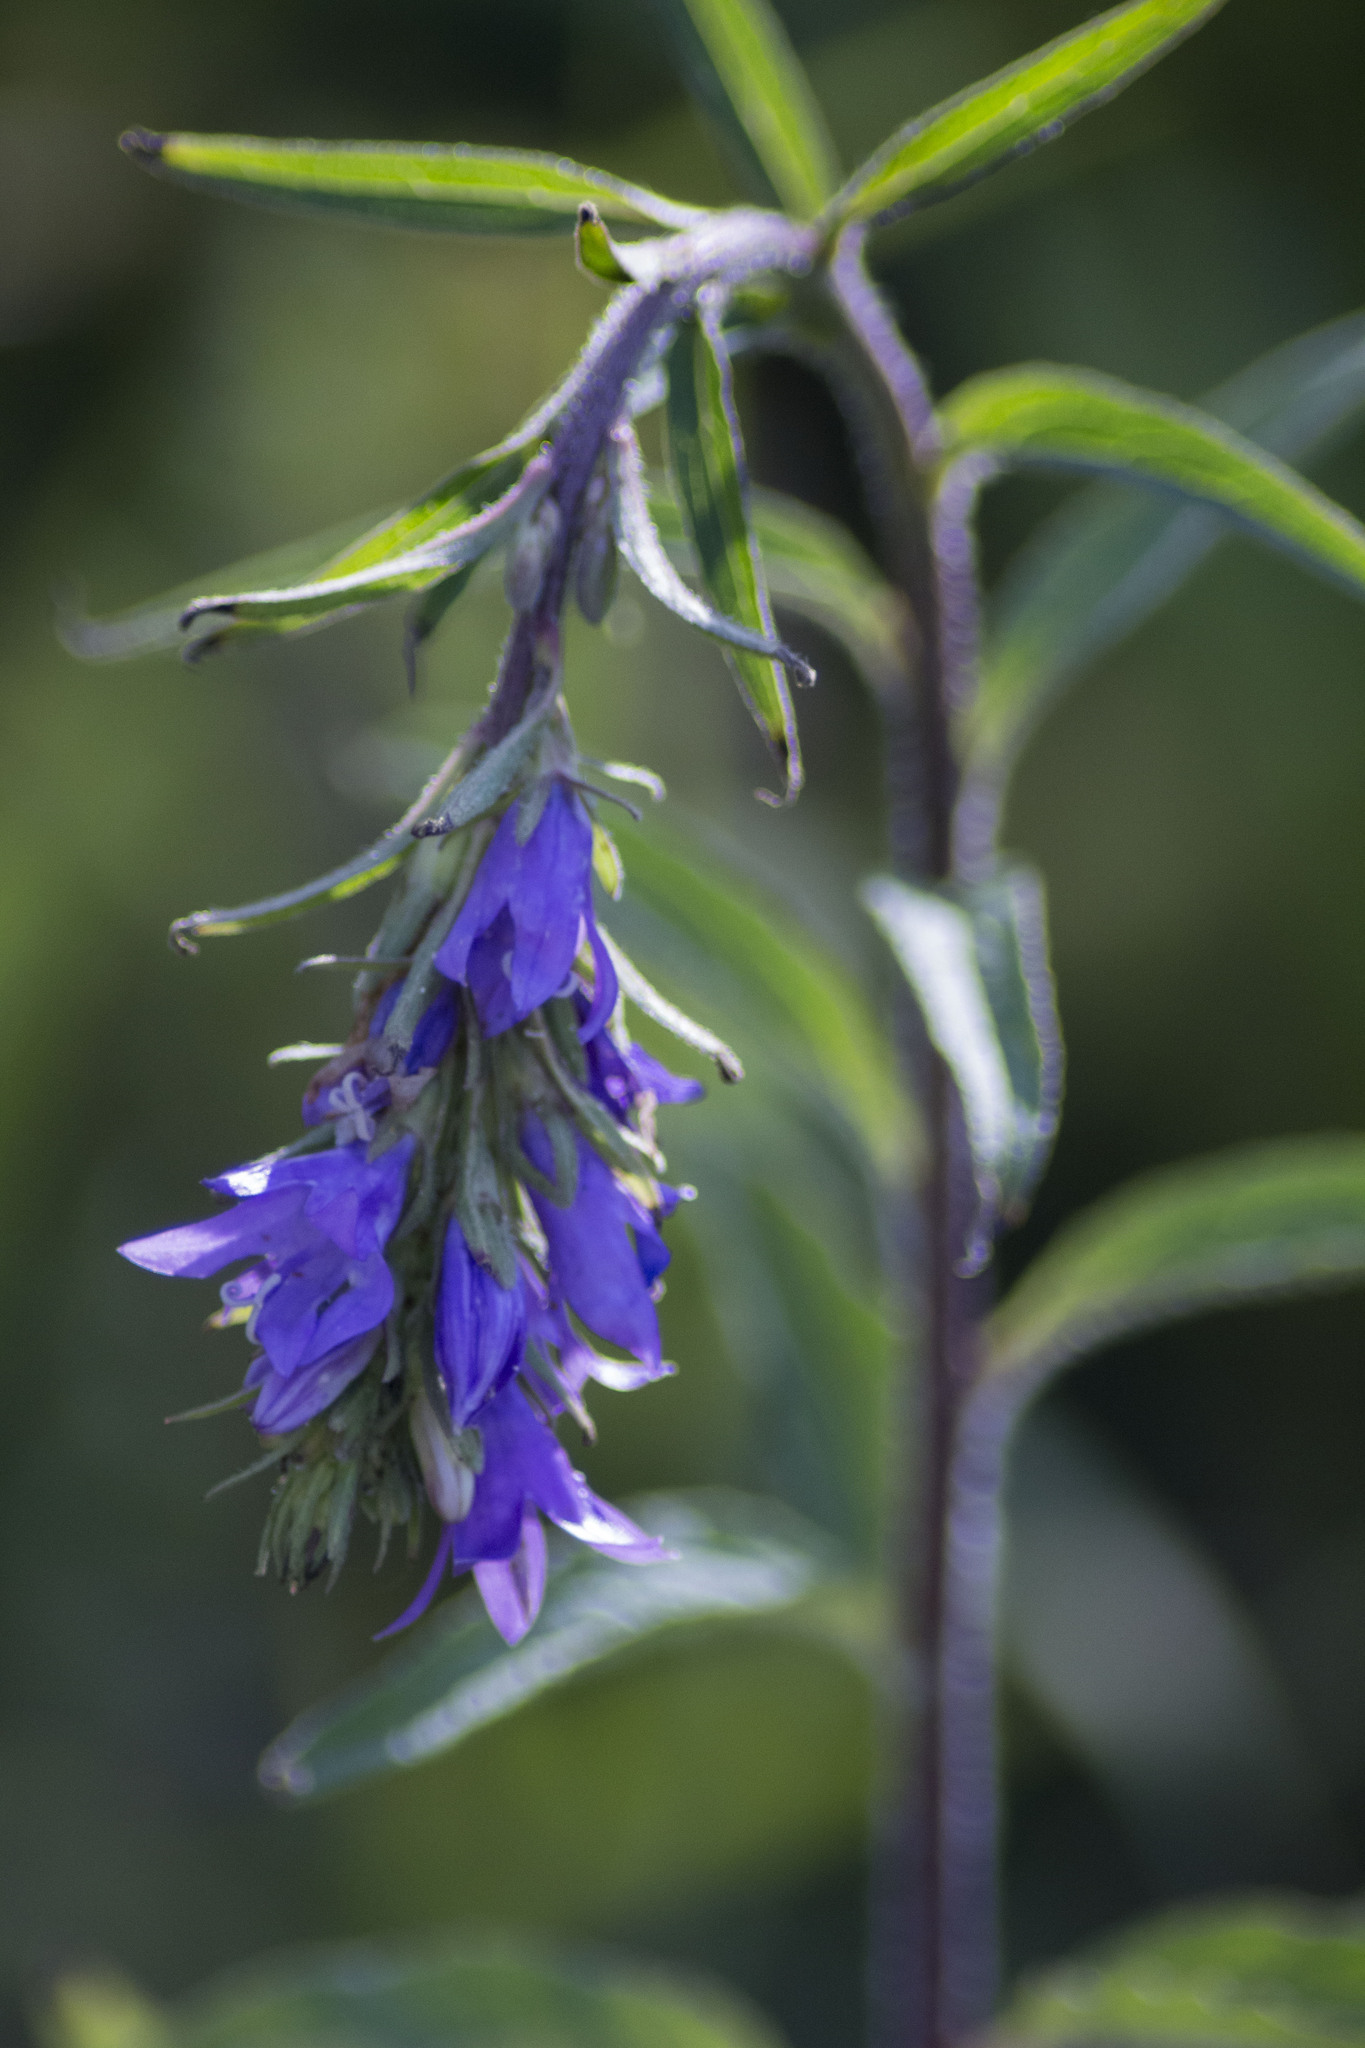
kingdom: Plantae
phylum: Tracheophyta
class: Magnoliopsida
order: Asterales
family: Campanulaceae
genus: Campanula
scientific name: Campanula glomerata
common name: Clustered bellflower
